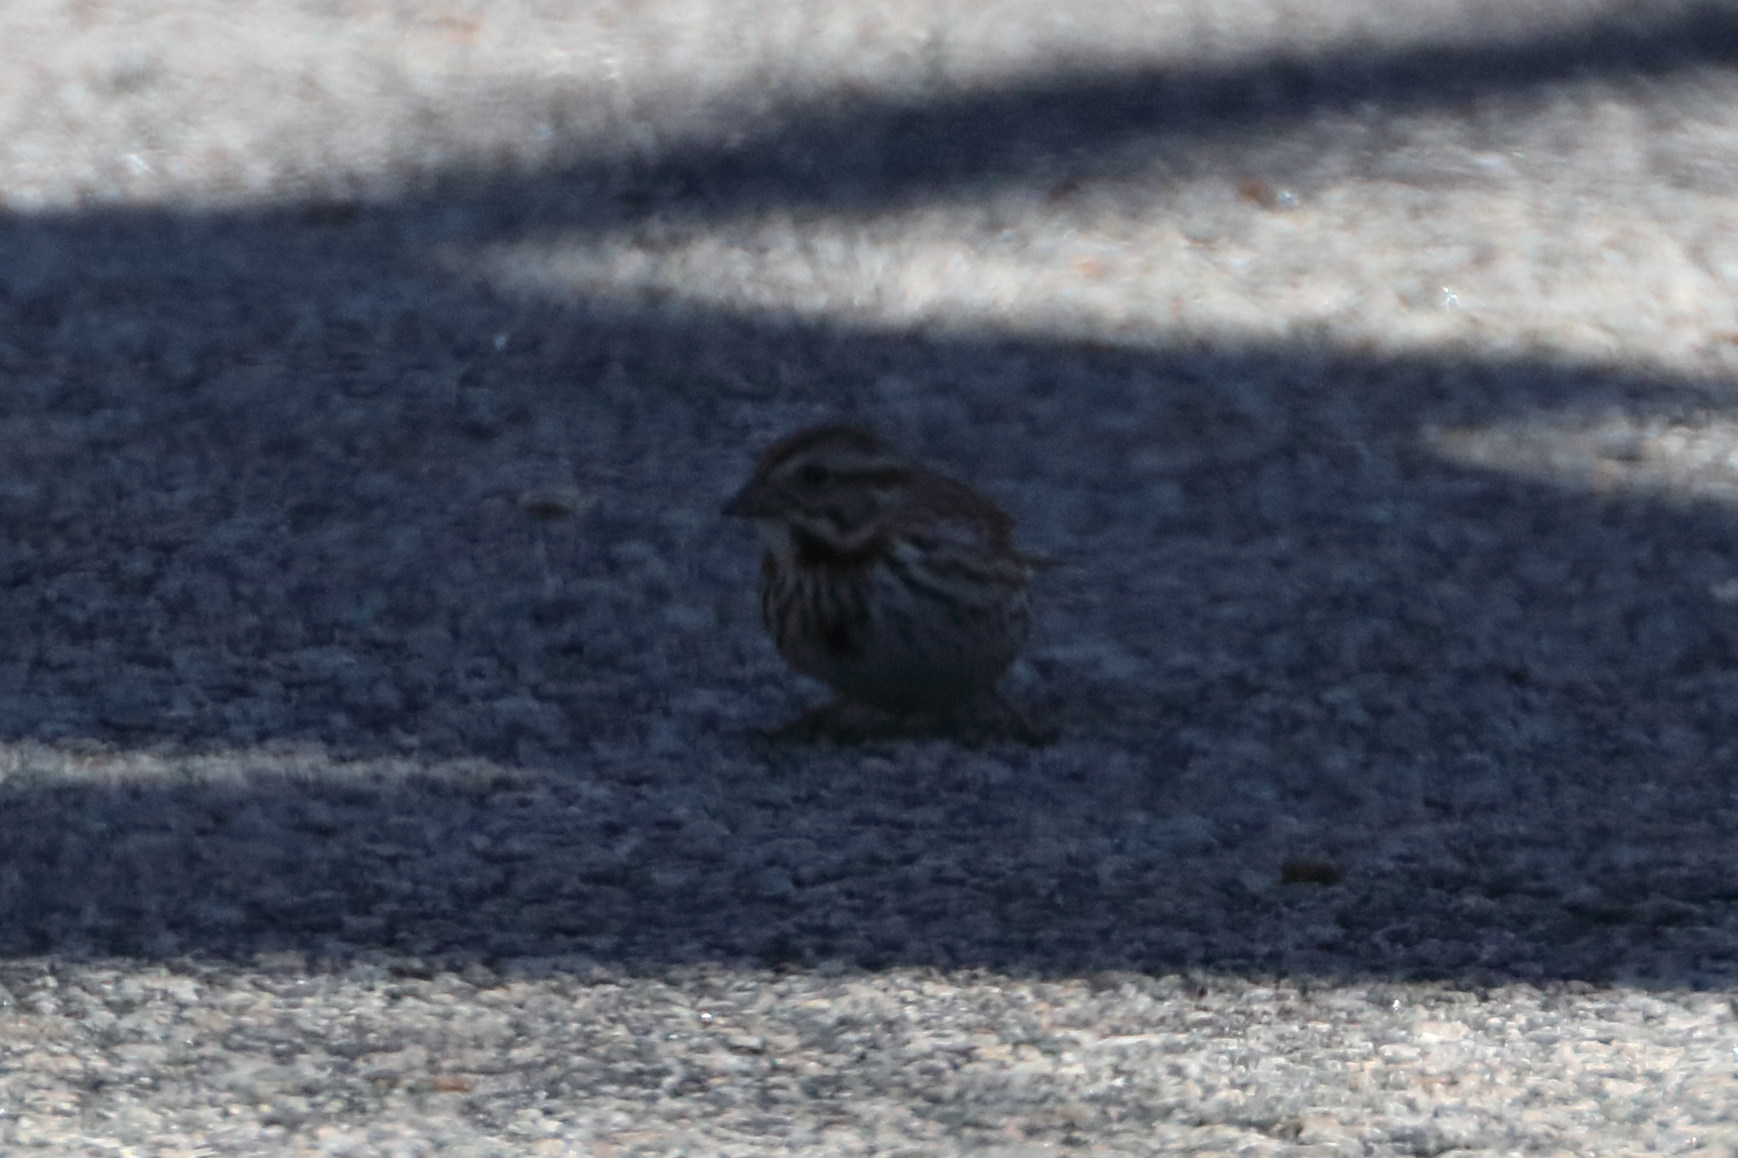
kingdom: Animalia
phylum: Chordata
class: Aves
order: Passeriformes
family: Passerellidae
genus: Melospiza
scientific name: Melospiza melodia
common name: Song sparrow
